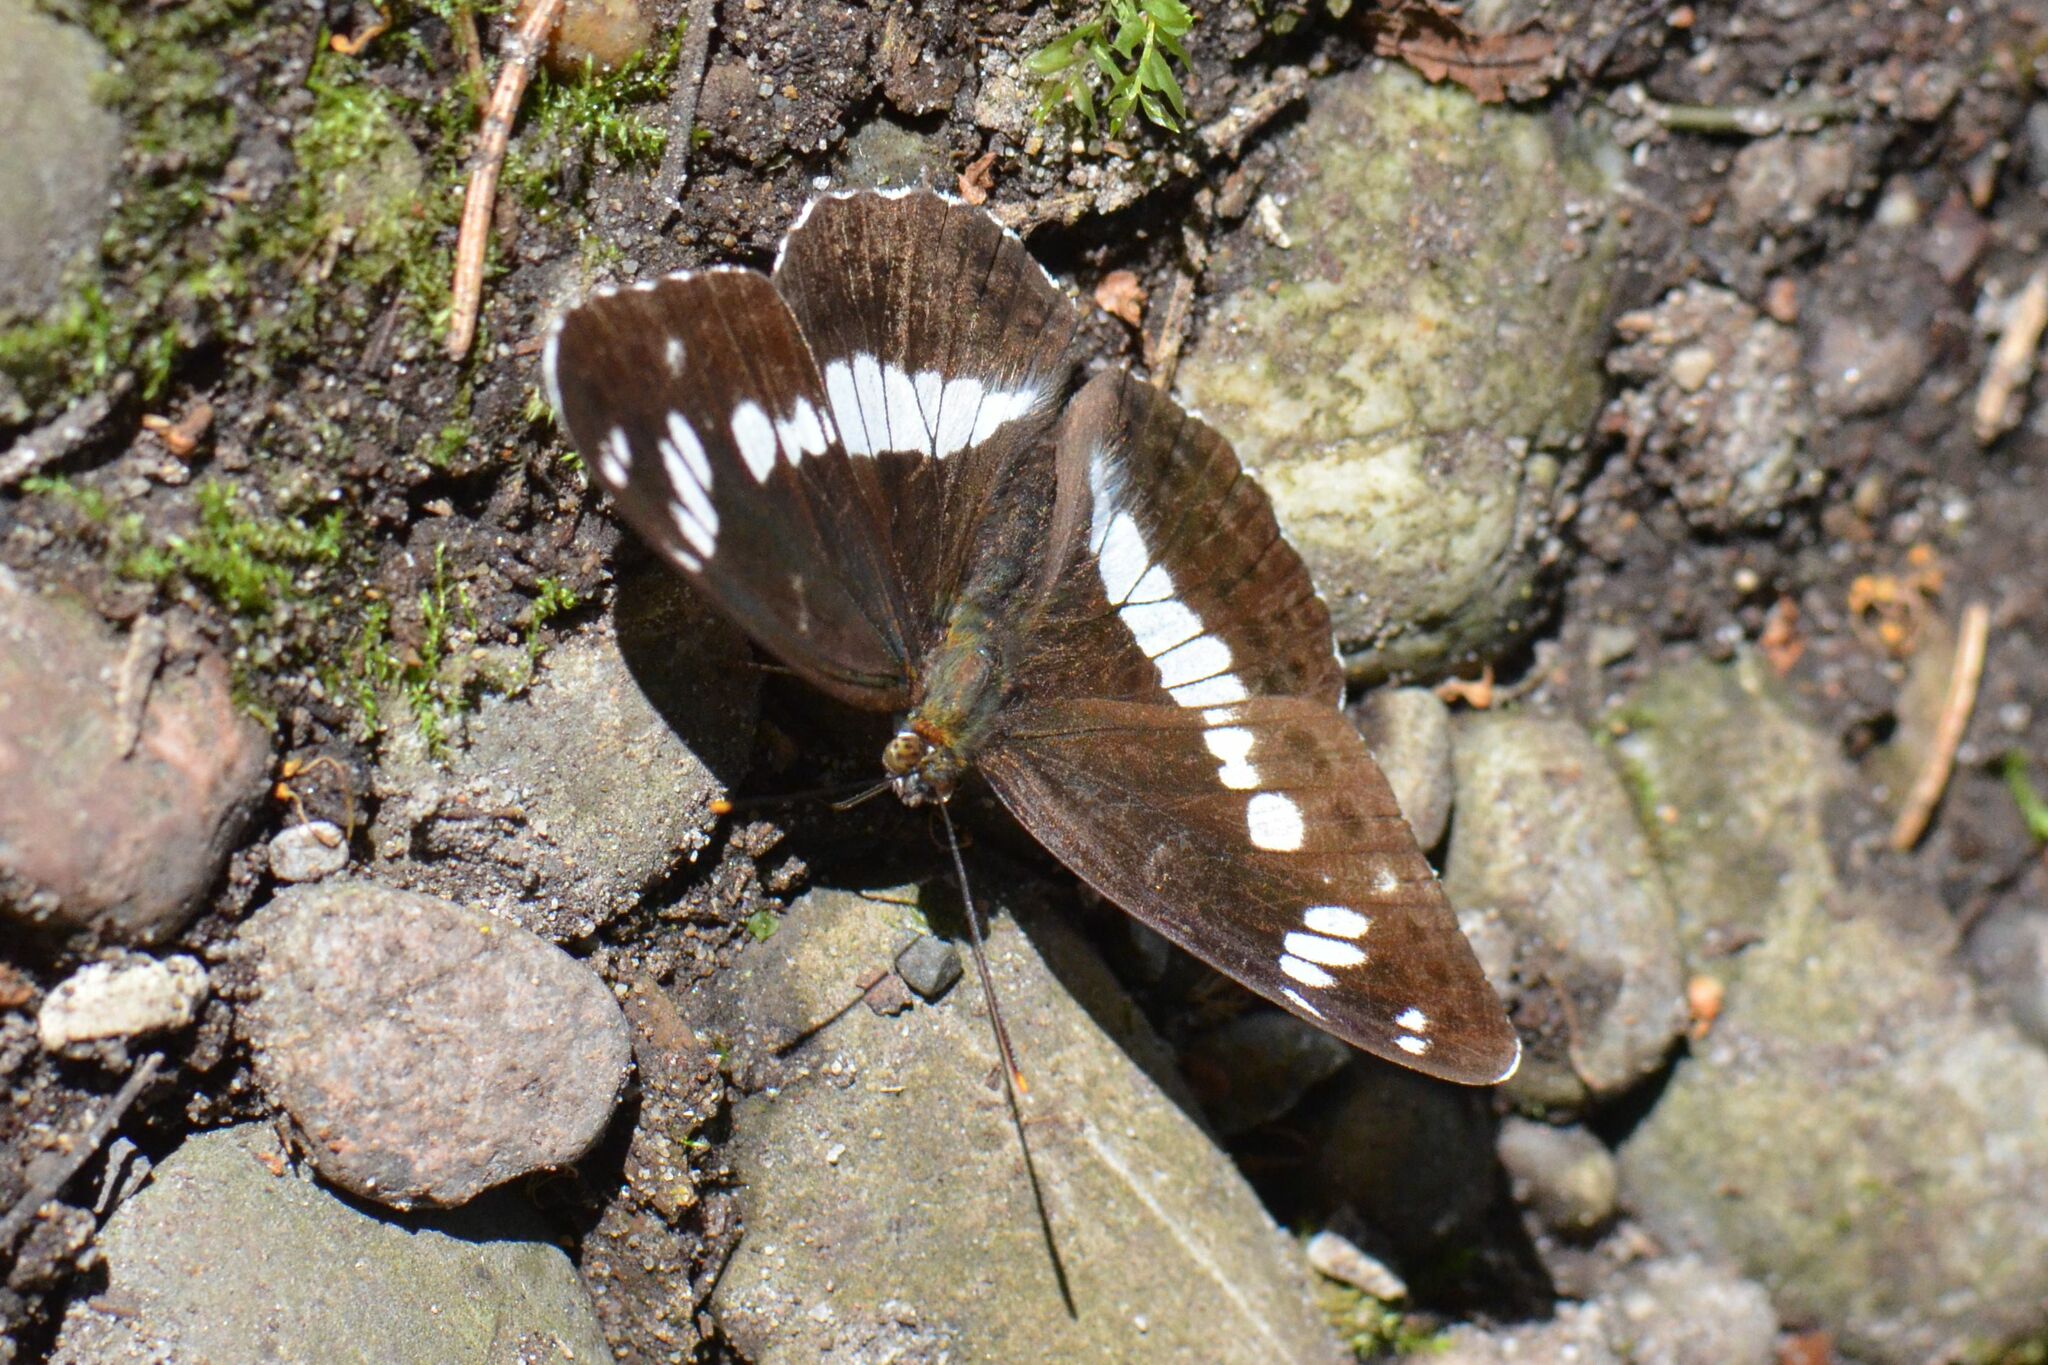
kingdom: Animalia
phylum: Arthropoda
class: Insecta
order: Lepidoptera
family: Nymphalidae
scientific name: Nymphalidae
